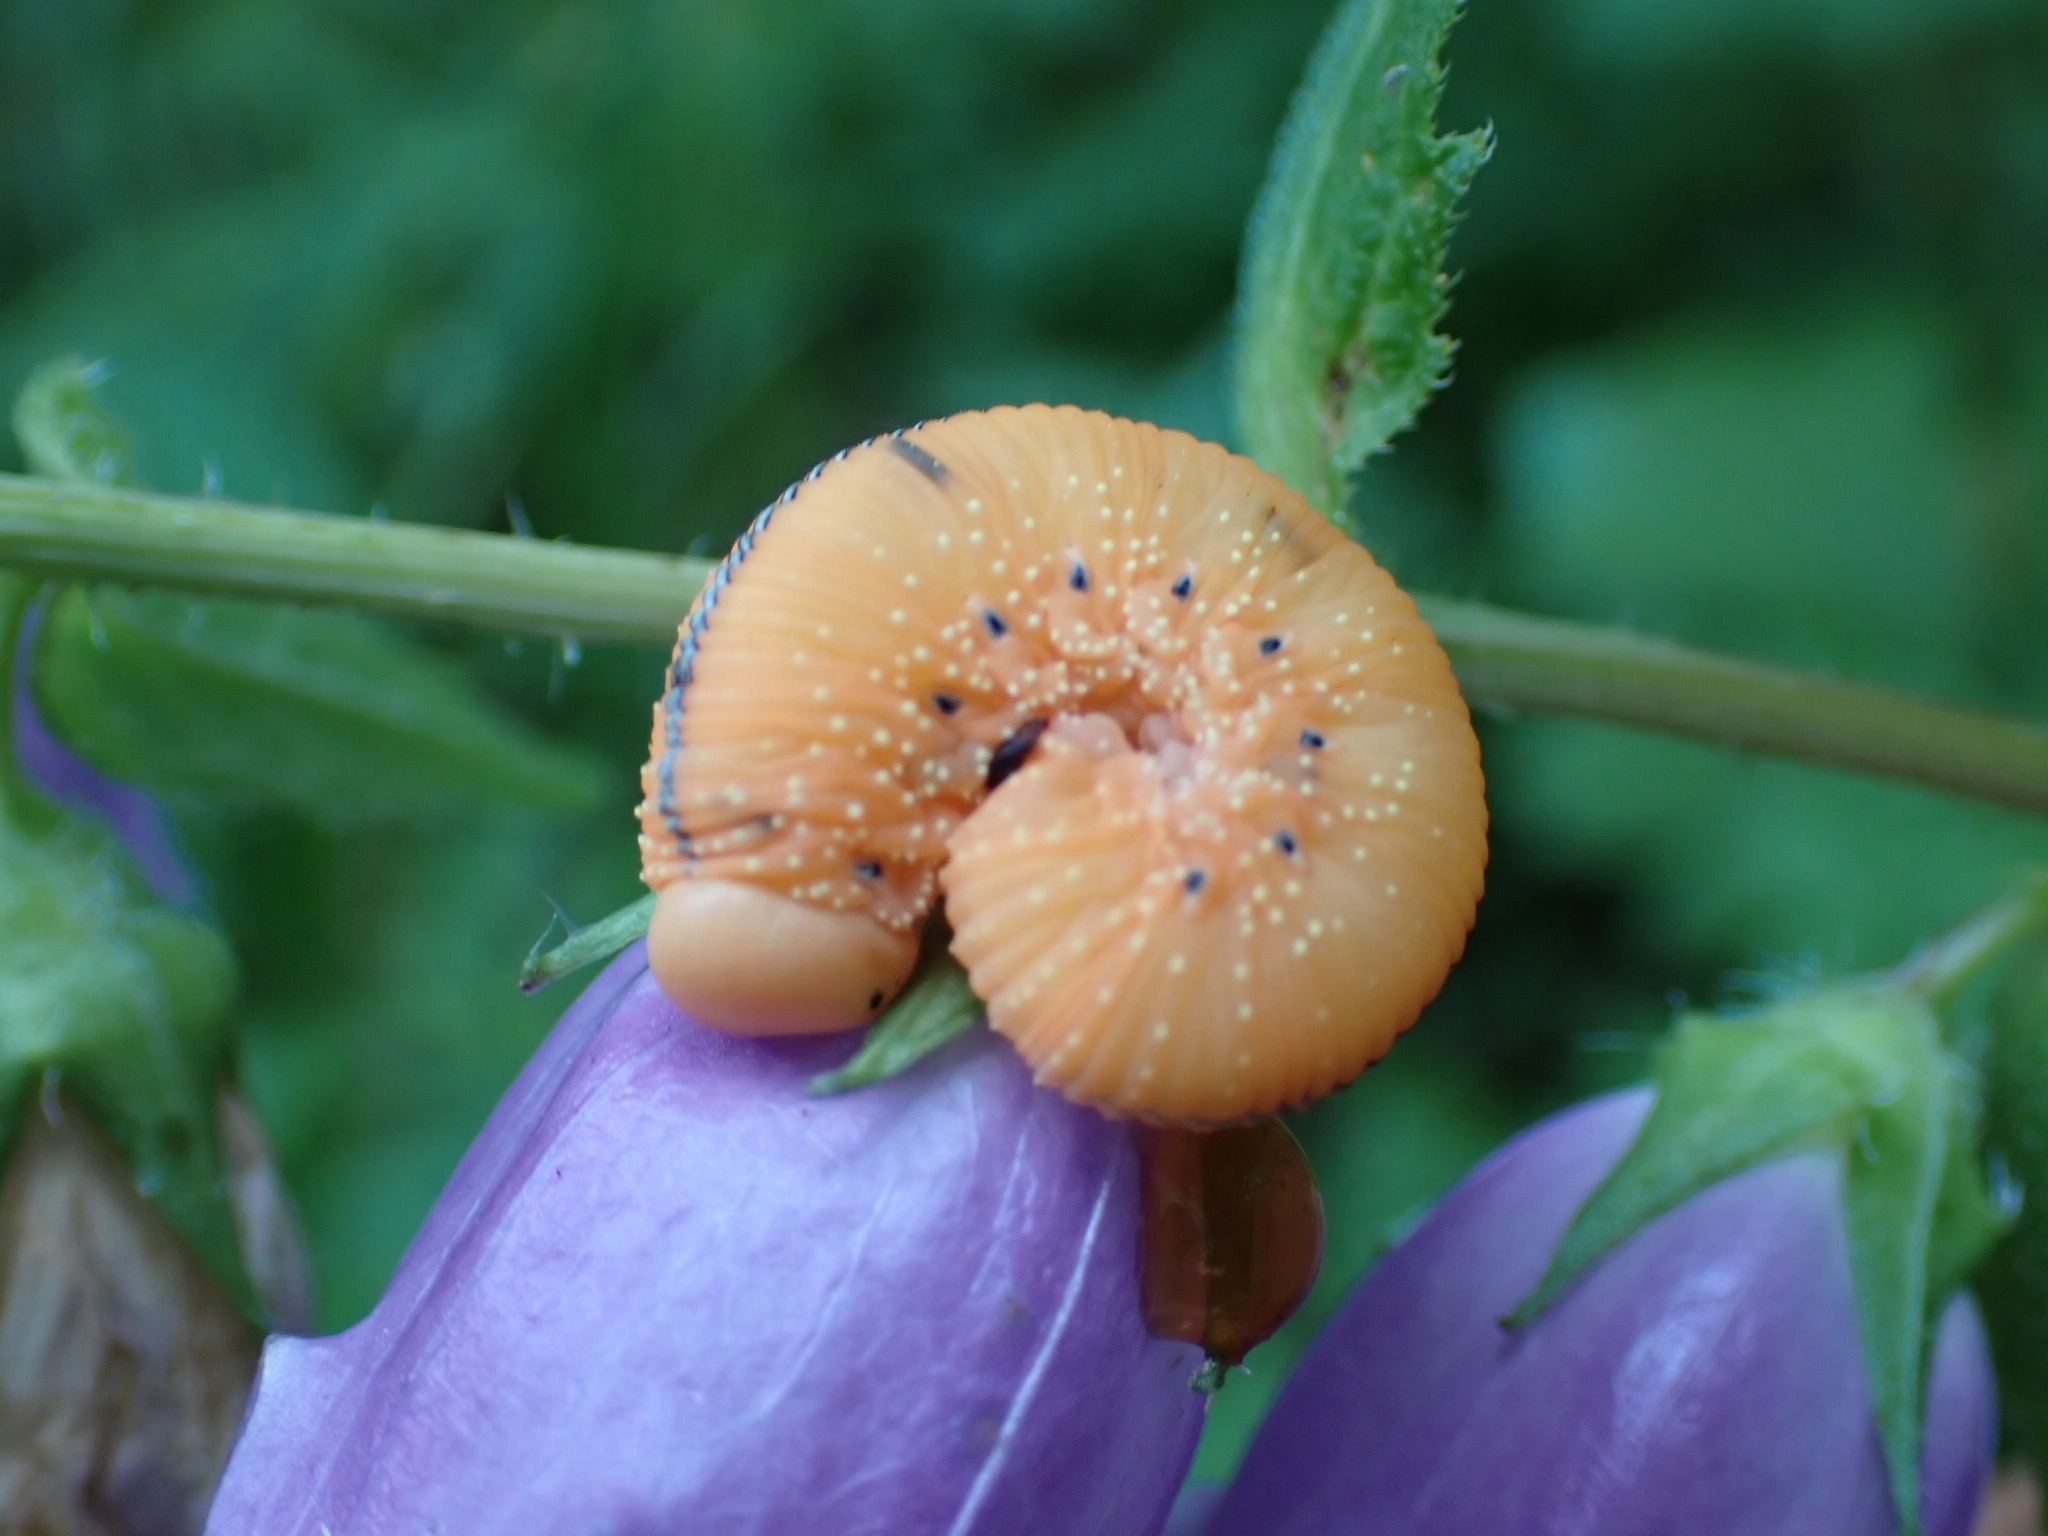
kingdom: Animalia
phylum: Arthropoda
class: Insecta
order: Hymenoptera
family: Cimbicidae
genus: Cimbex
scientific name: Cimbex femoratus
